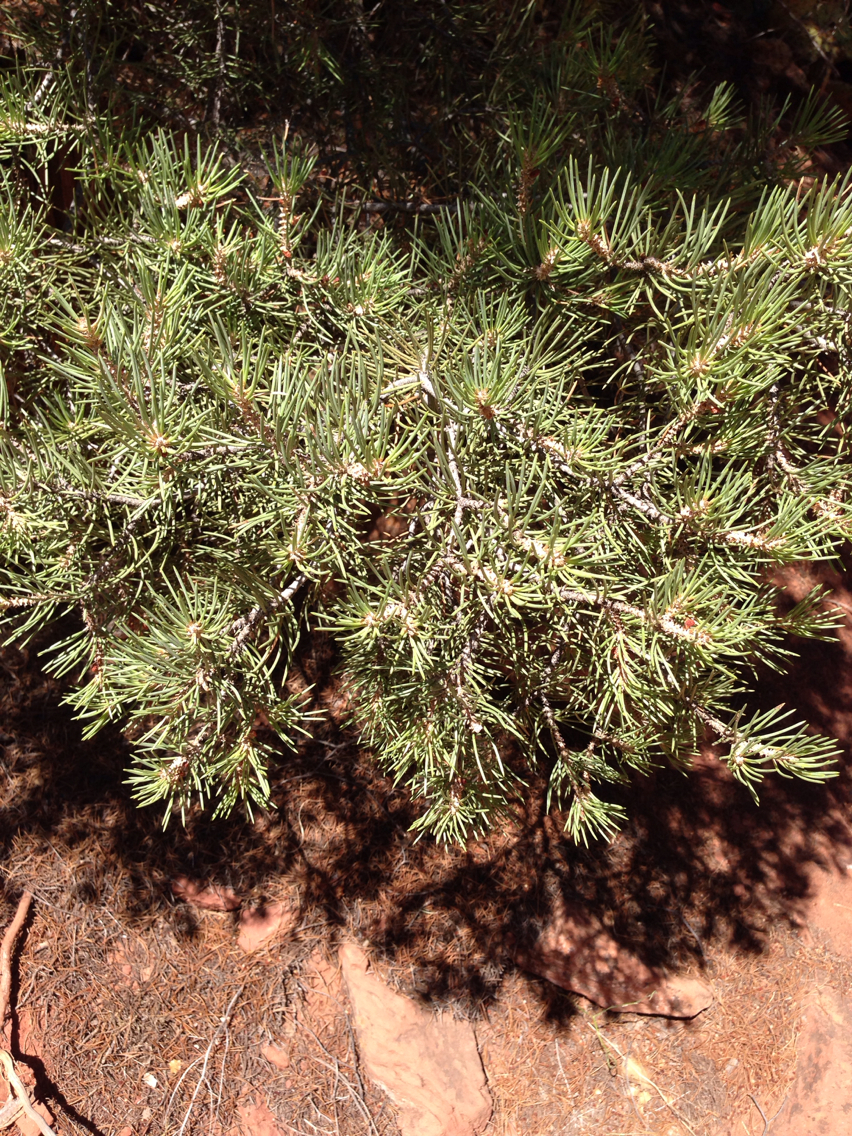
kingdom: Plantae
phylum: Tracheophyta
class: Pinopsida
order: Pinales
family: Pinaceae
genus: Pinus
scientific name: Pinus monophylla
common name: One-leaved nut pine
